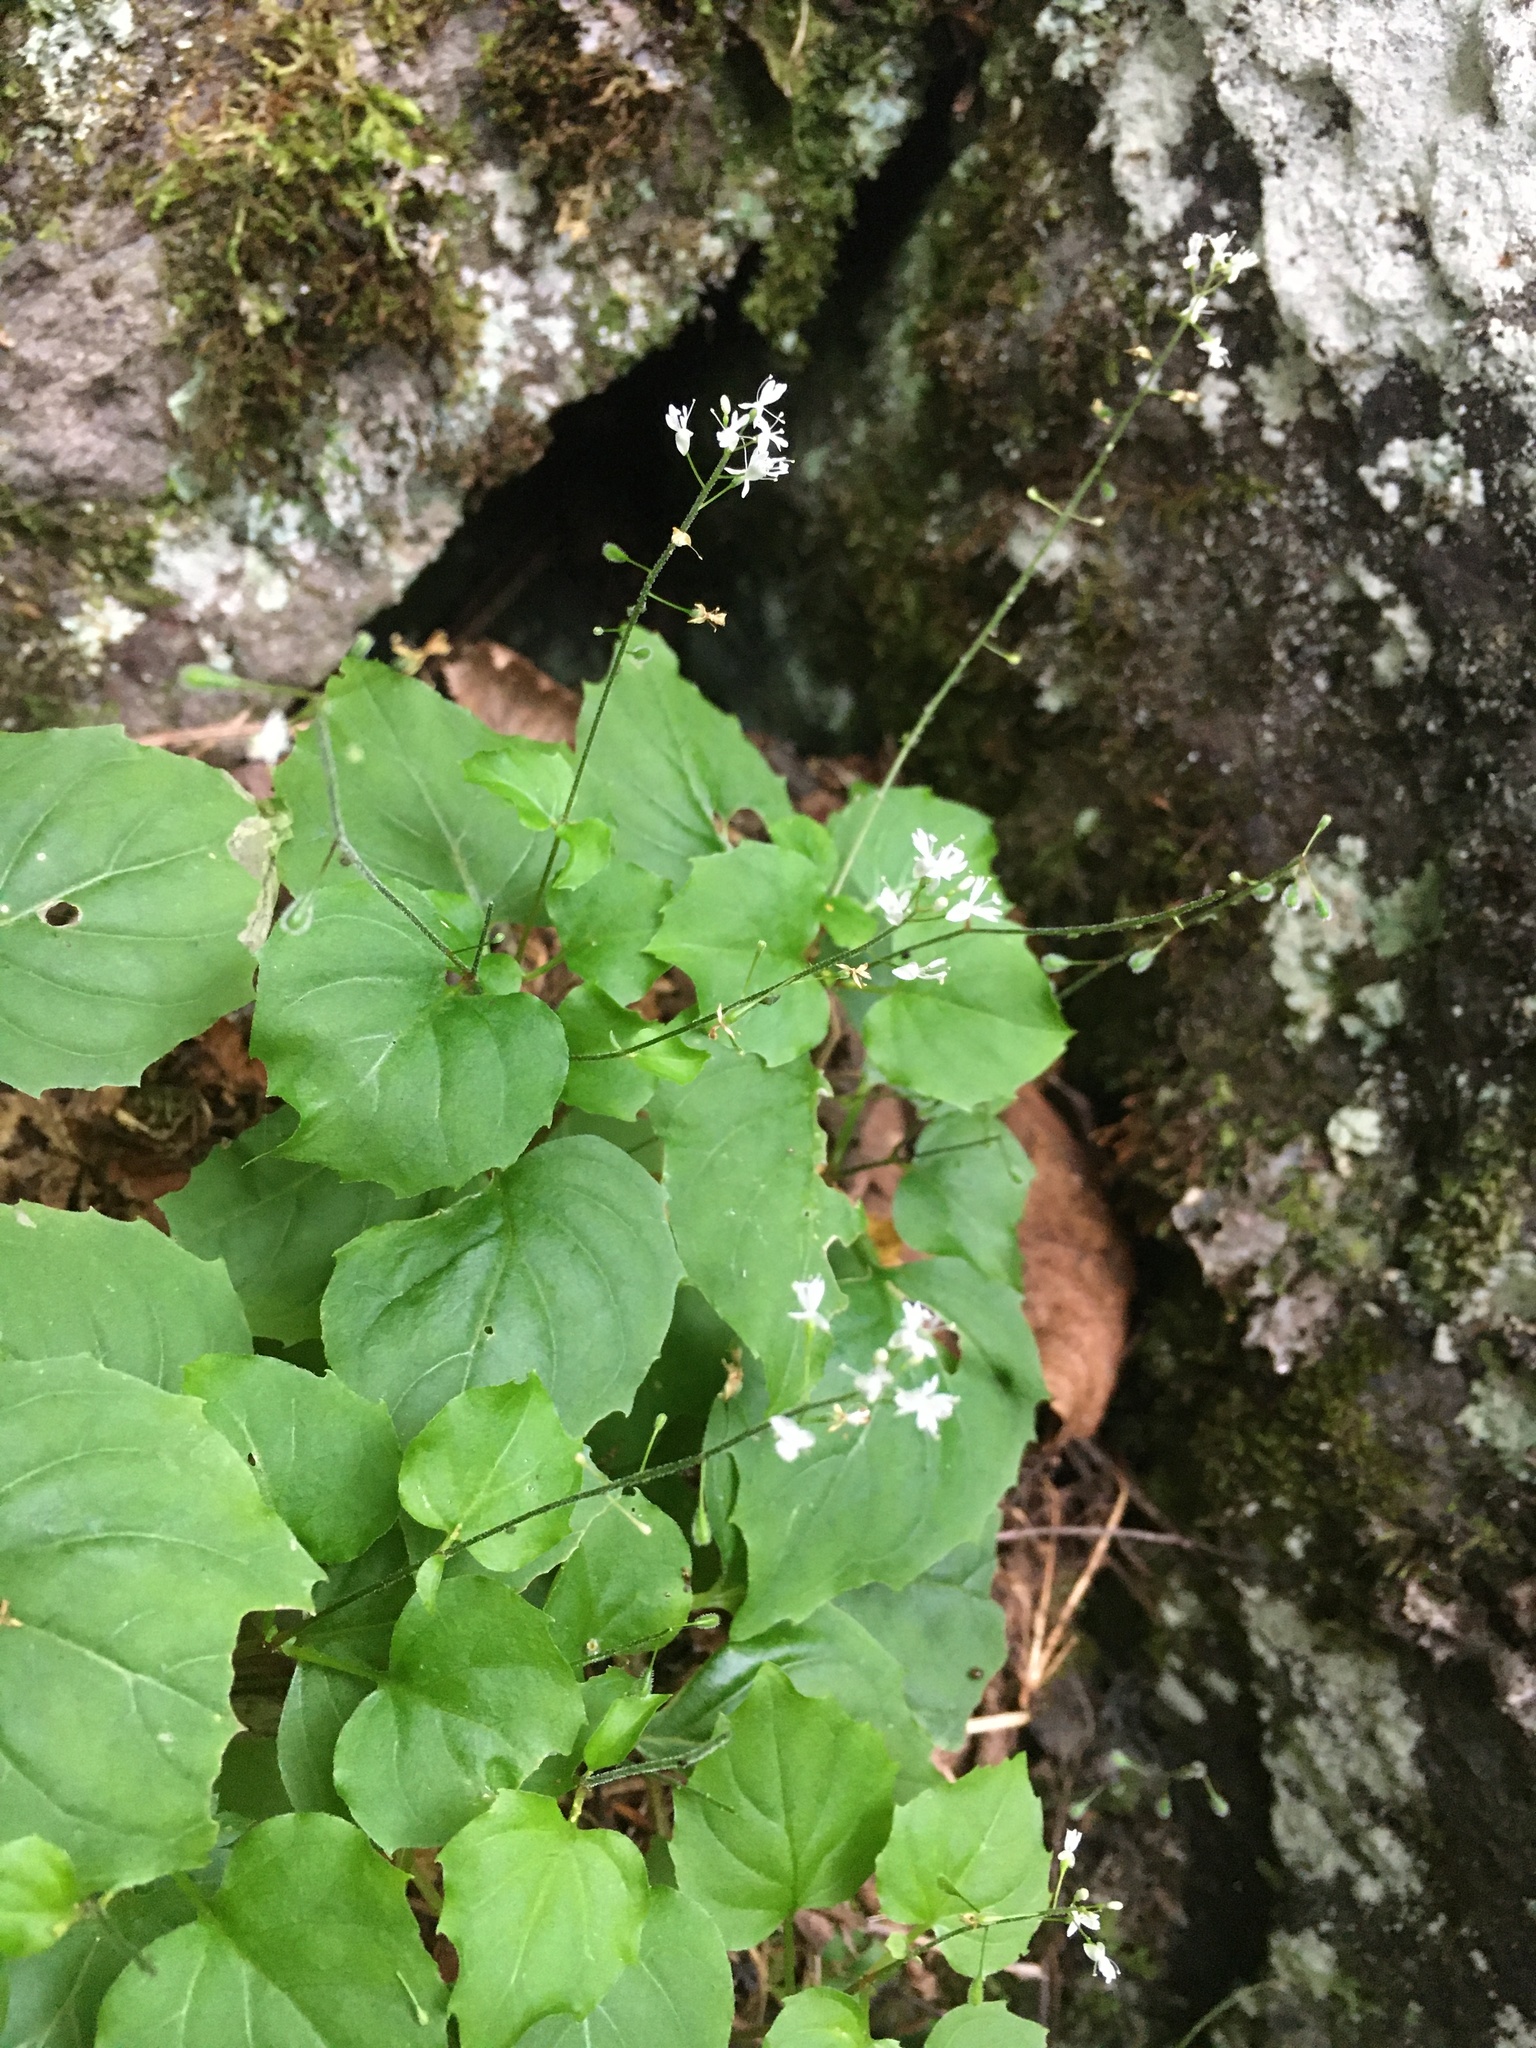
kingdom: Plantae
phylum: Tracheophyta
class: Magnoliopsida
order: Myrtales
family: Onagraceae
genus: Circaea
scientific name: Circaea alpina
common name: Alpine enchanter's-nightshade
